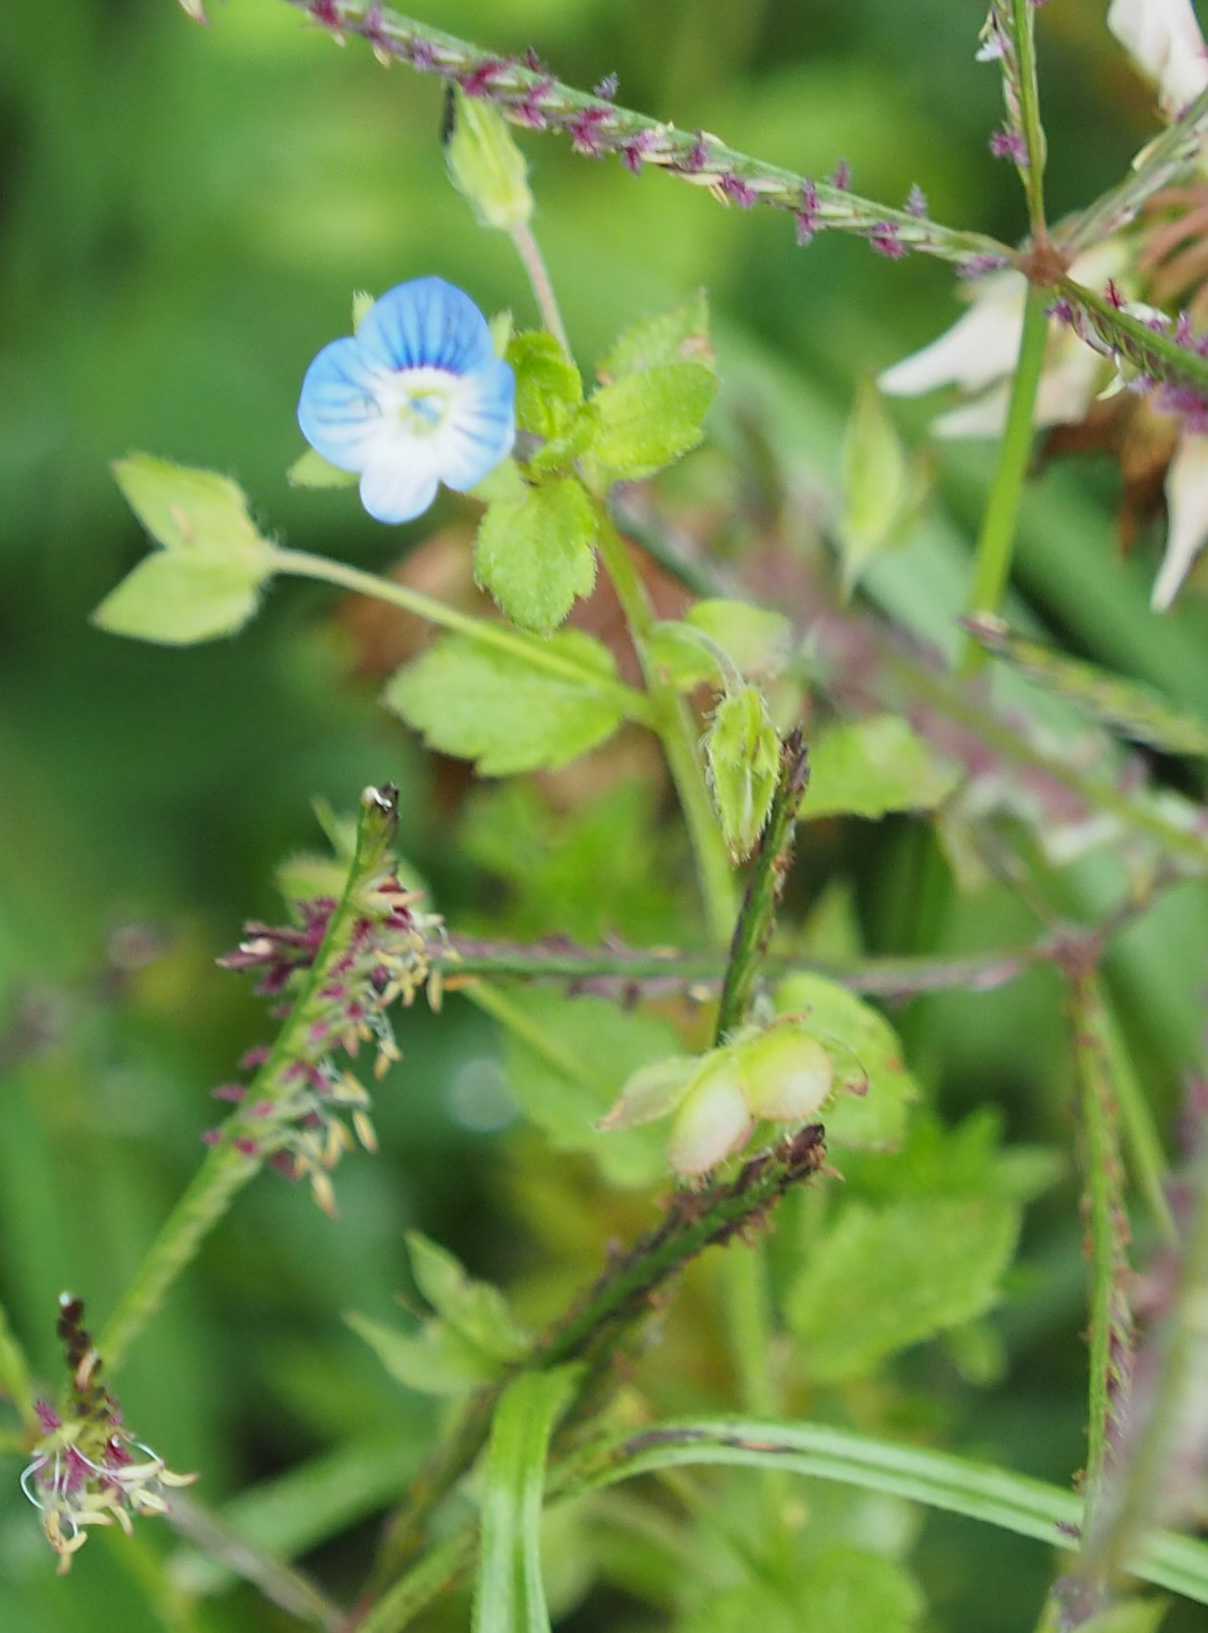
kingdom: Plantae
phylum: Tracheophyta
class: Magnoliopsida
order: Lamiales
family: Plantaginaceae
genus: Veronica
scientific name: Veronica persica
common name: Common field-speedwell
